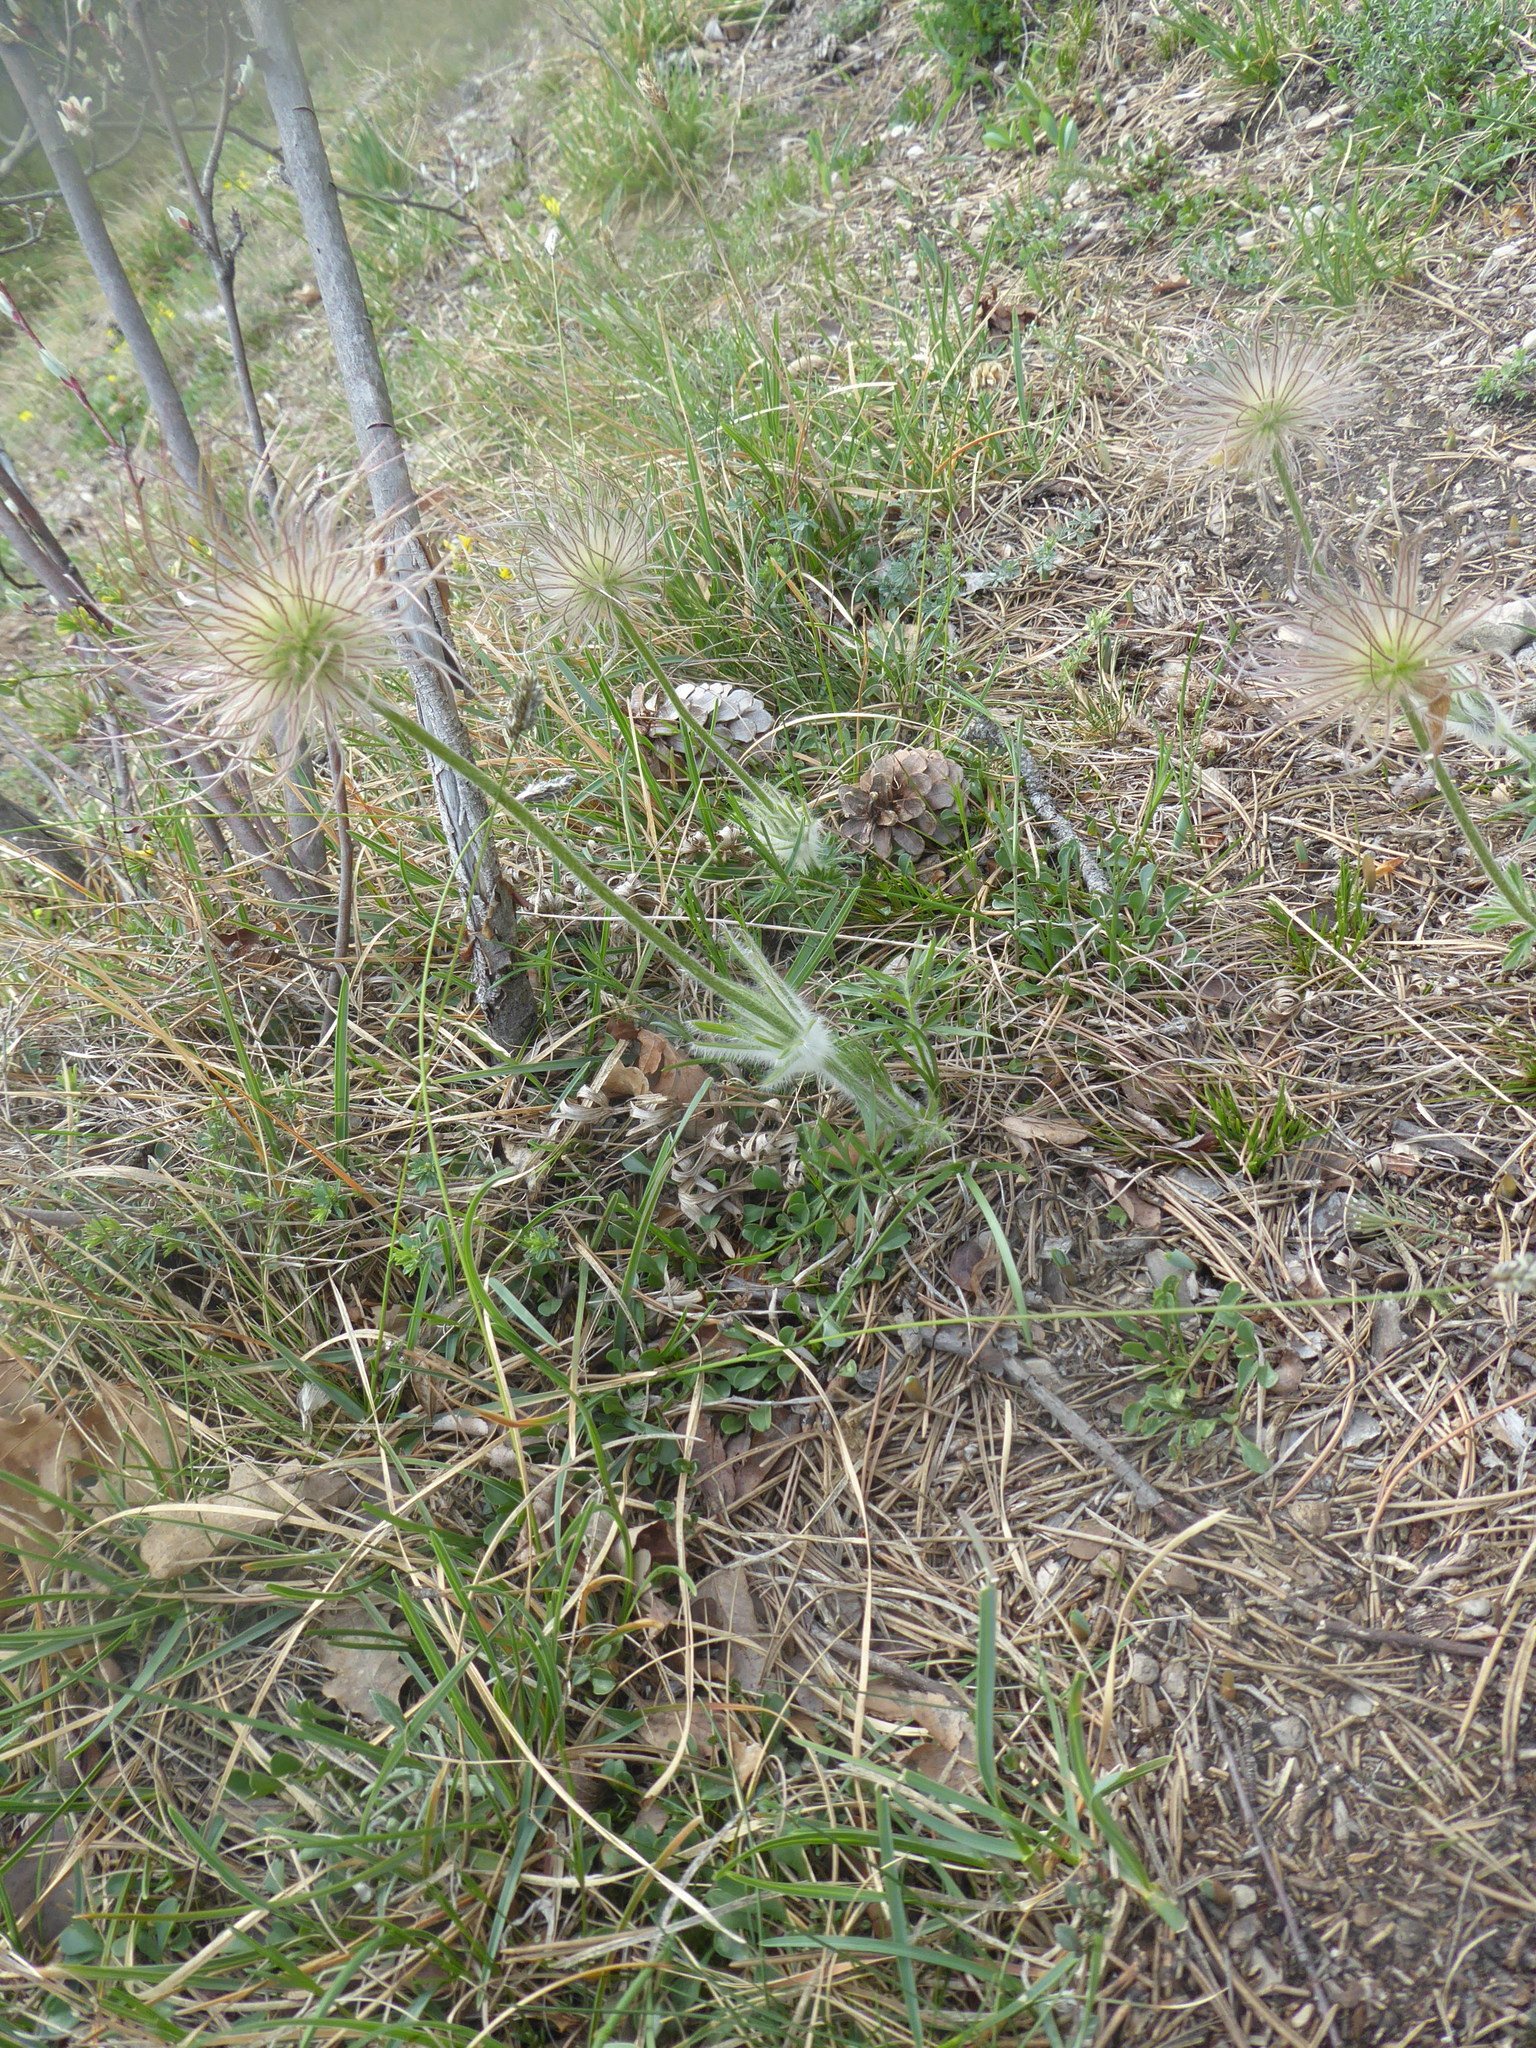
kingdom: Plantae
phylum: Tracheophyta
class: Magnoliopsida
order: Ranunculales
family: Ranunculaceae
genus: Pulsatilla
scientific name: Pulsatilla grandis
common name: Greater pasque flower
